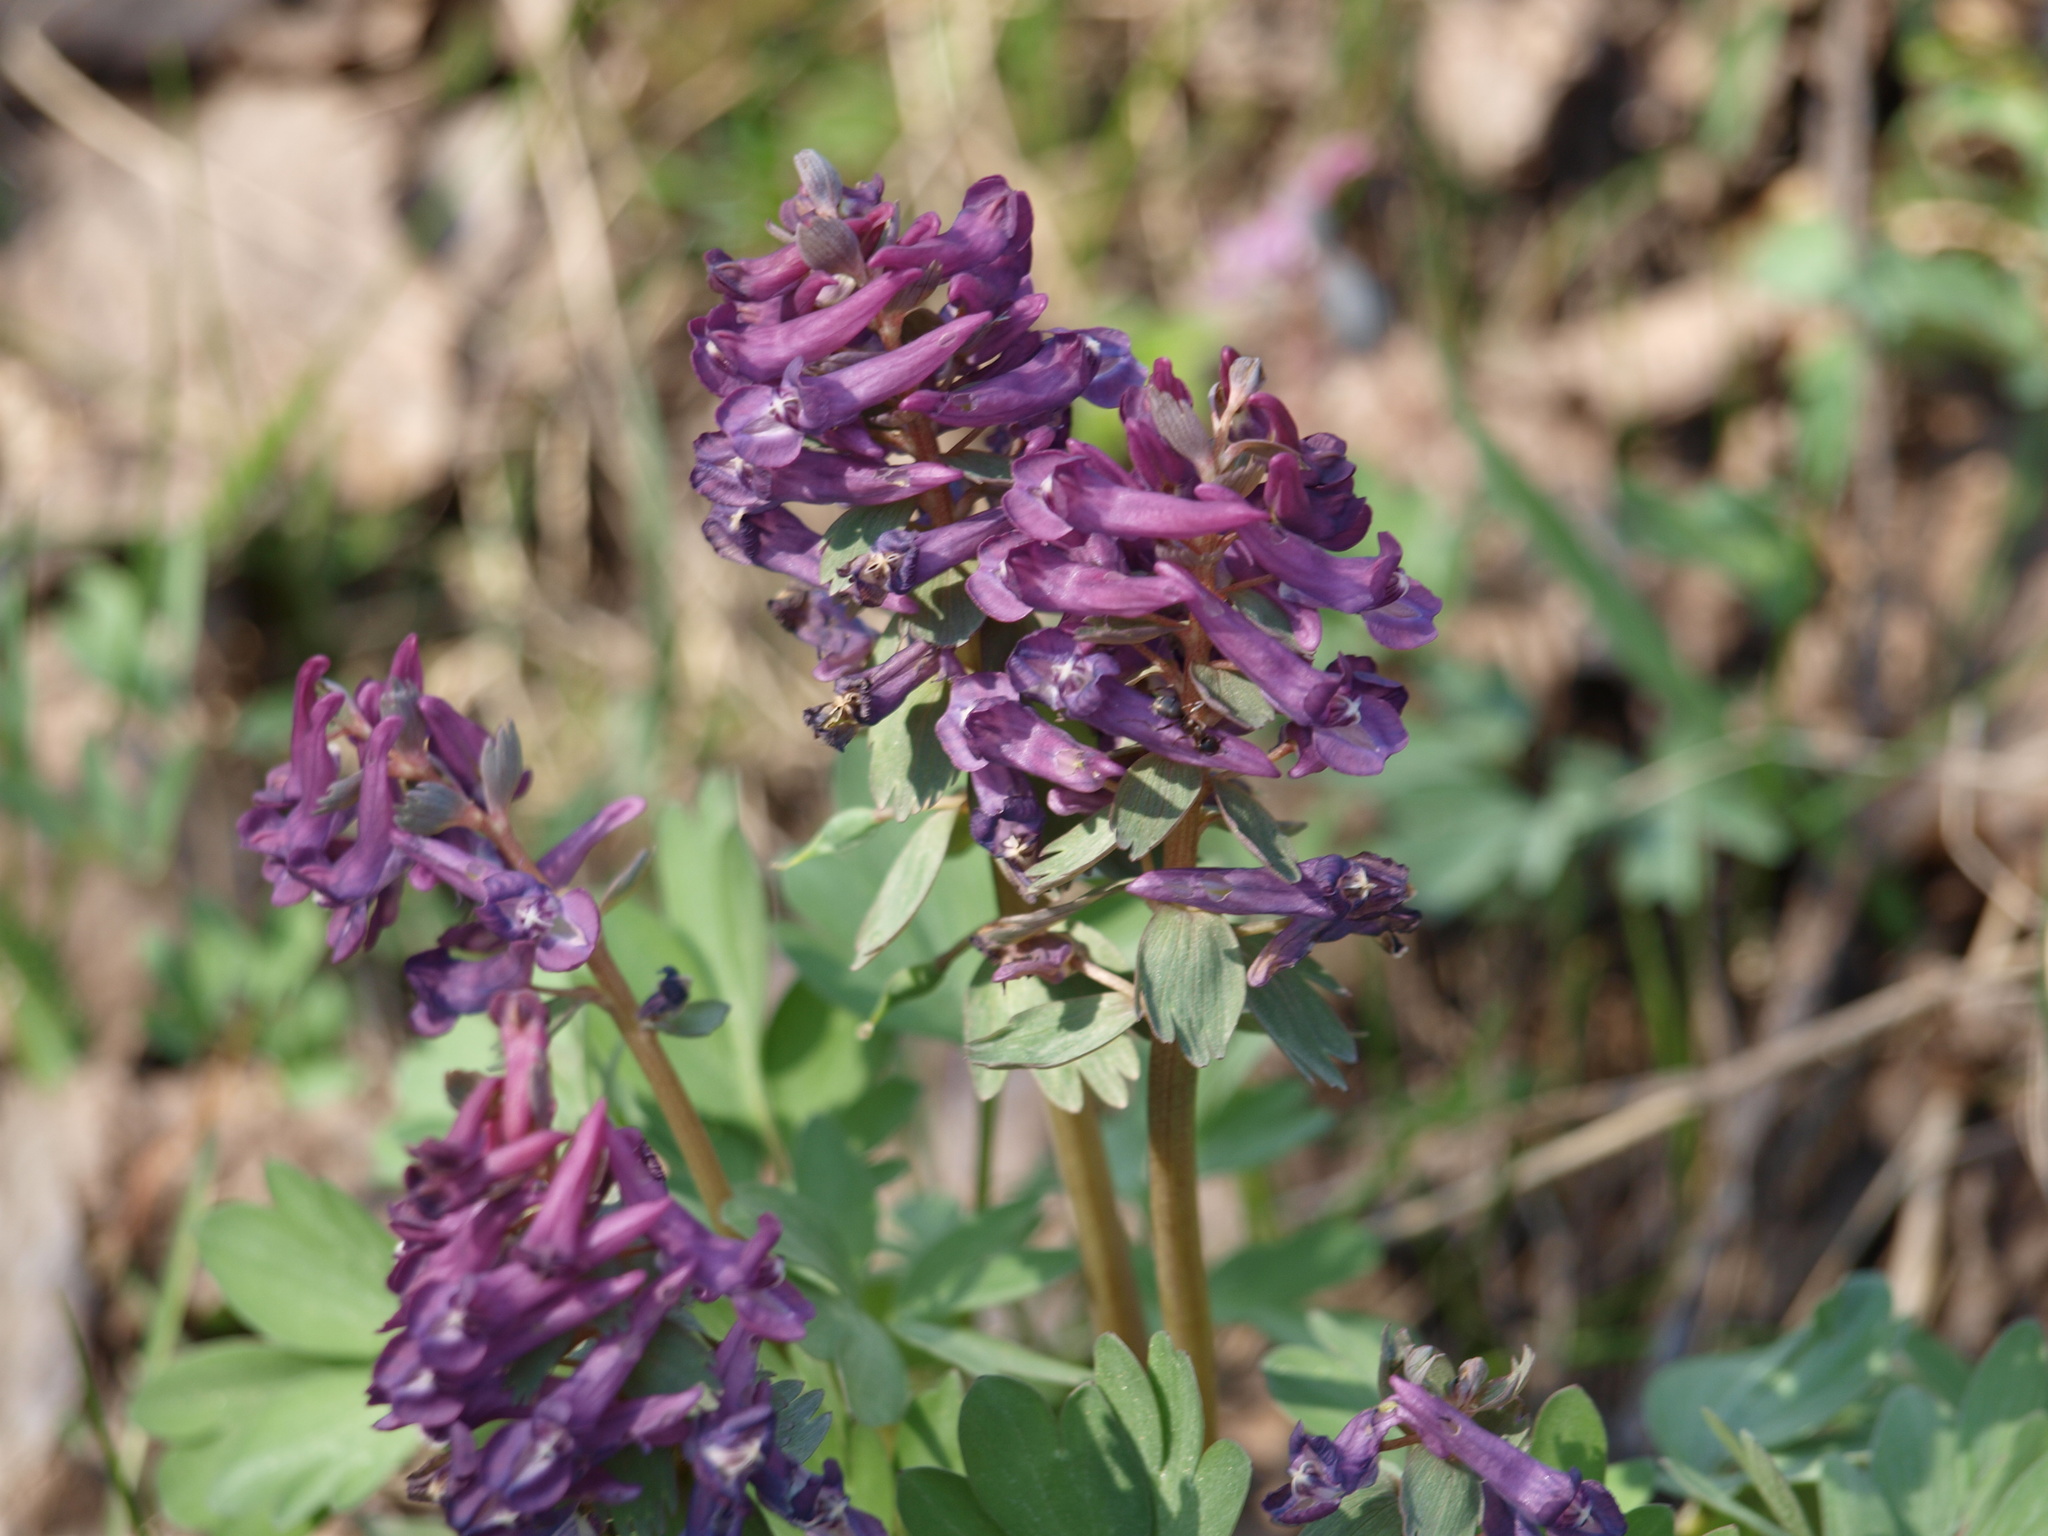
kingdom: Plantae
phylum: Tracheophyta
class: Magnoliopsida
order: Ranunculales
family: Papaveraceae
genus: Corydalis
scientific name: Corydalis solida
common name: Bird-in-a-bush
